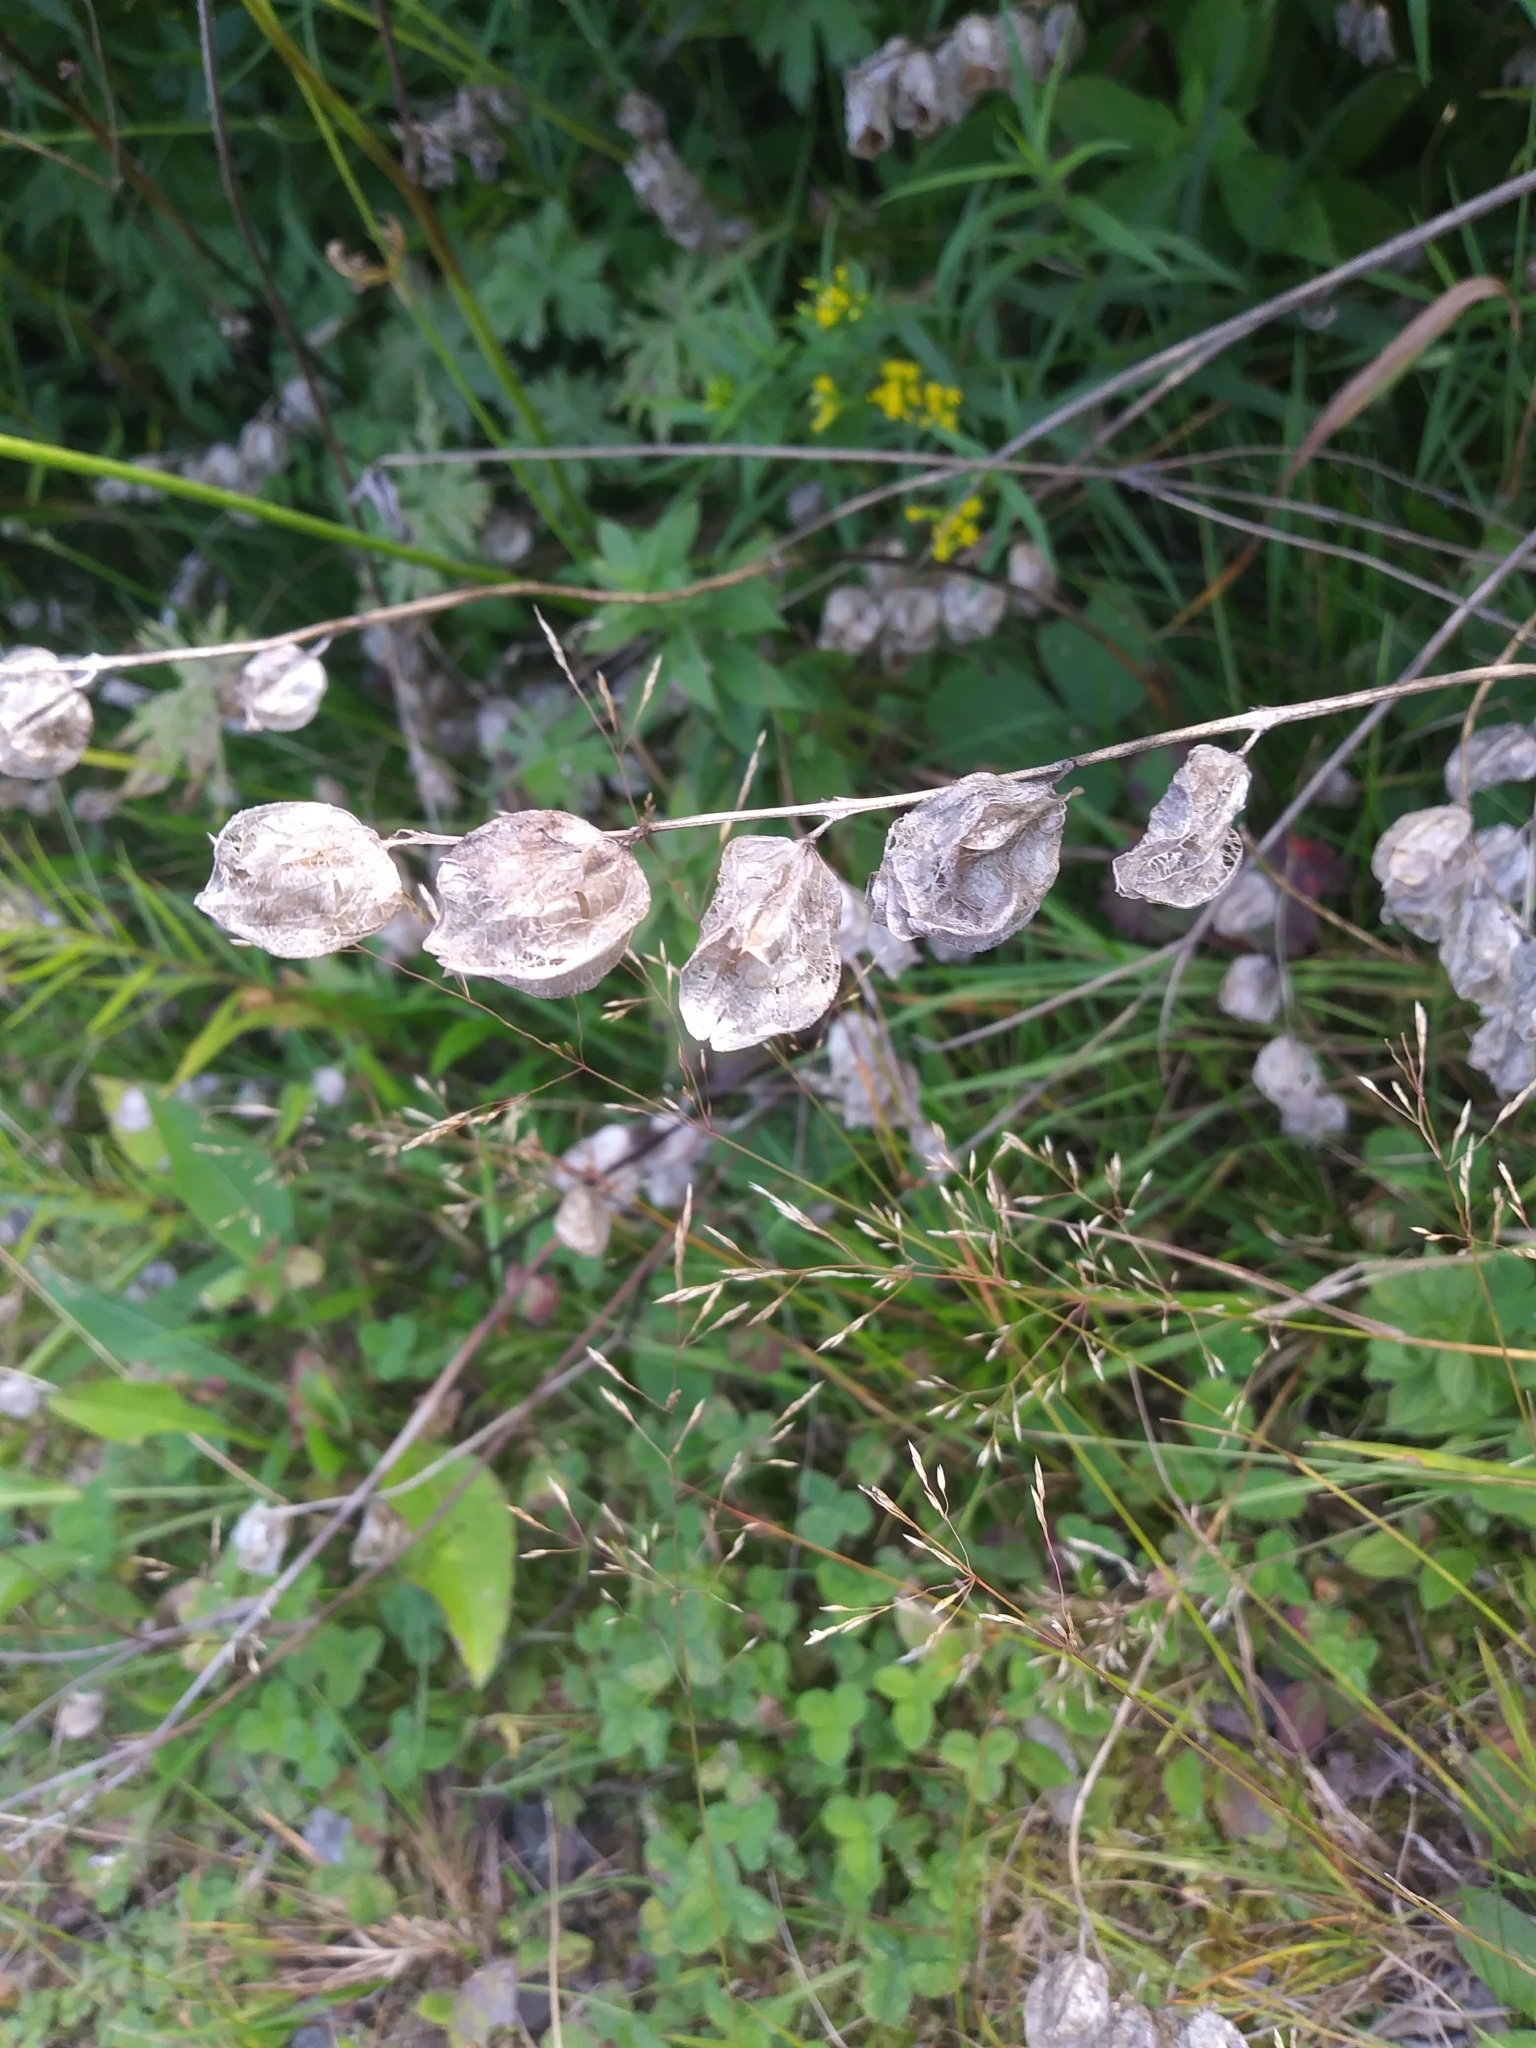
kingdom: Plantae
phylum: Tracheophyta
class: Magnoliopsida
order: Lamiales
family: Orobanchaceae
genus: Rhinanthus
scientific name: Rhinanthus minor
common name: Yellow-rattle
